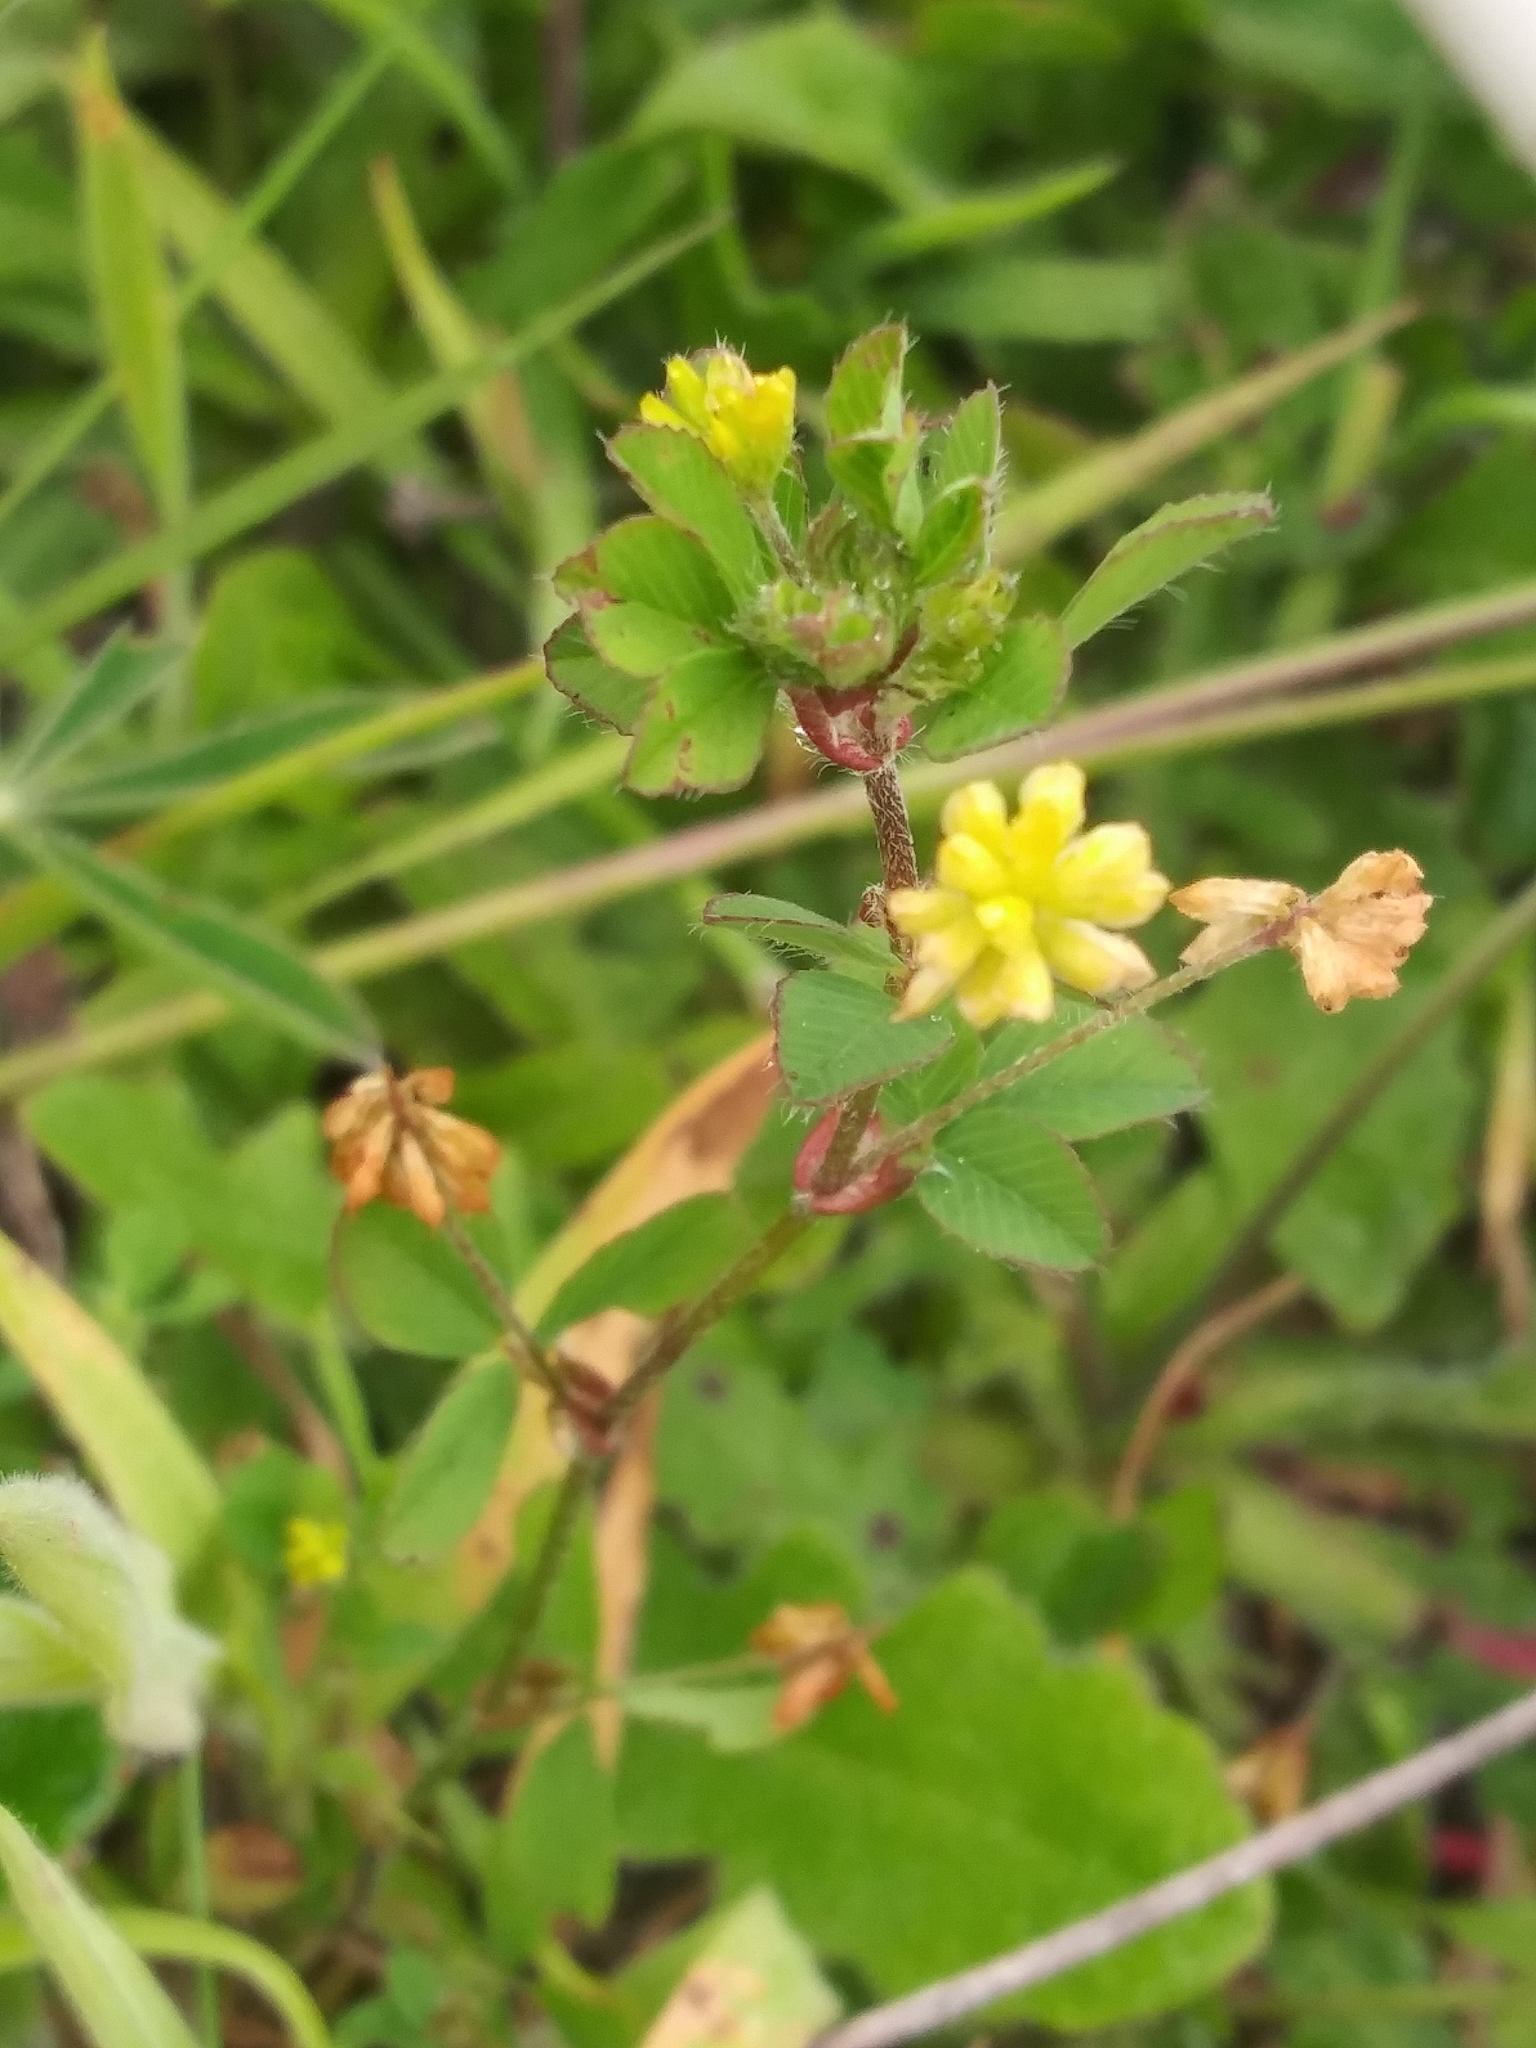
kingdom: Plantae
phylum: Tracheophyta
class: Magnoliopsida
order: Fabales
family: Fabaceae
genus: Trifolium
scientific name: Trifolium dubium
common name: Suckling clover
